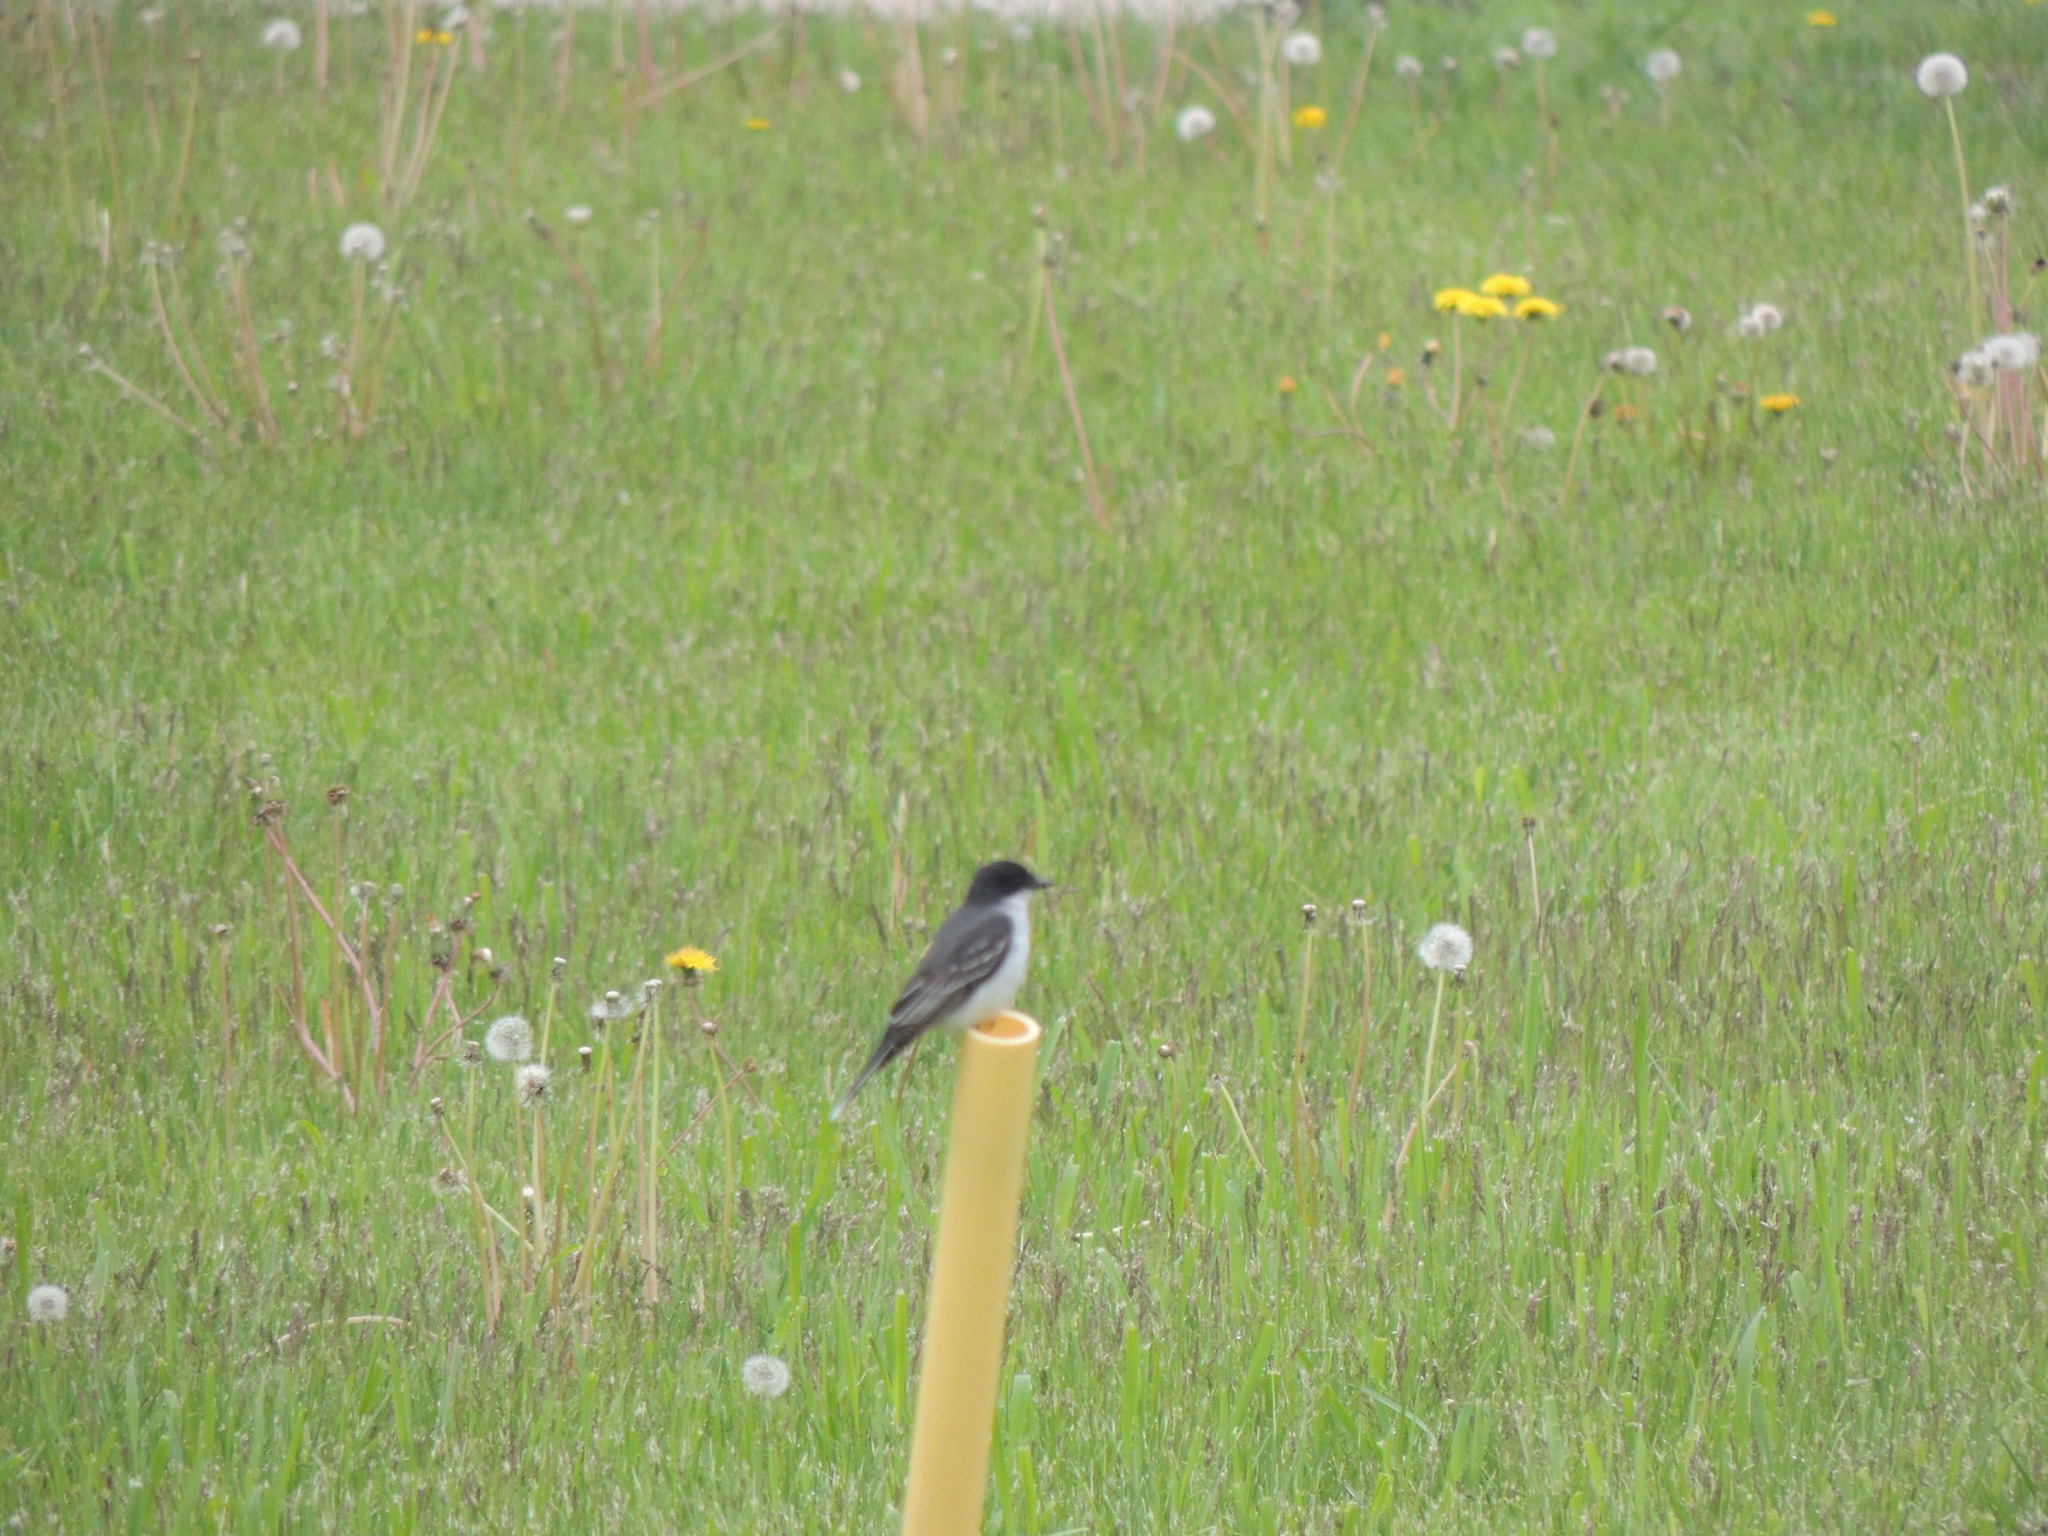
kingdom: Animalia
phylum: Chordata
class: Aves
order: Passeriformes
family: Tyrannidae
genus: Tyrannus
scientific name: Tyrannus tyrannus
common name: Eastern kingbird
